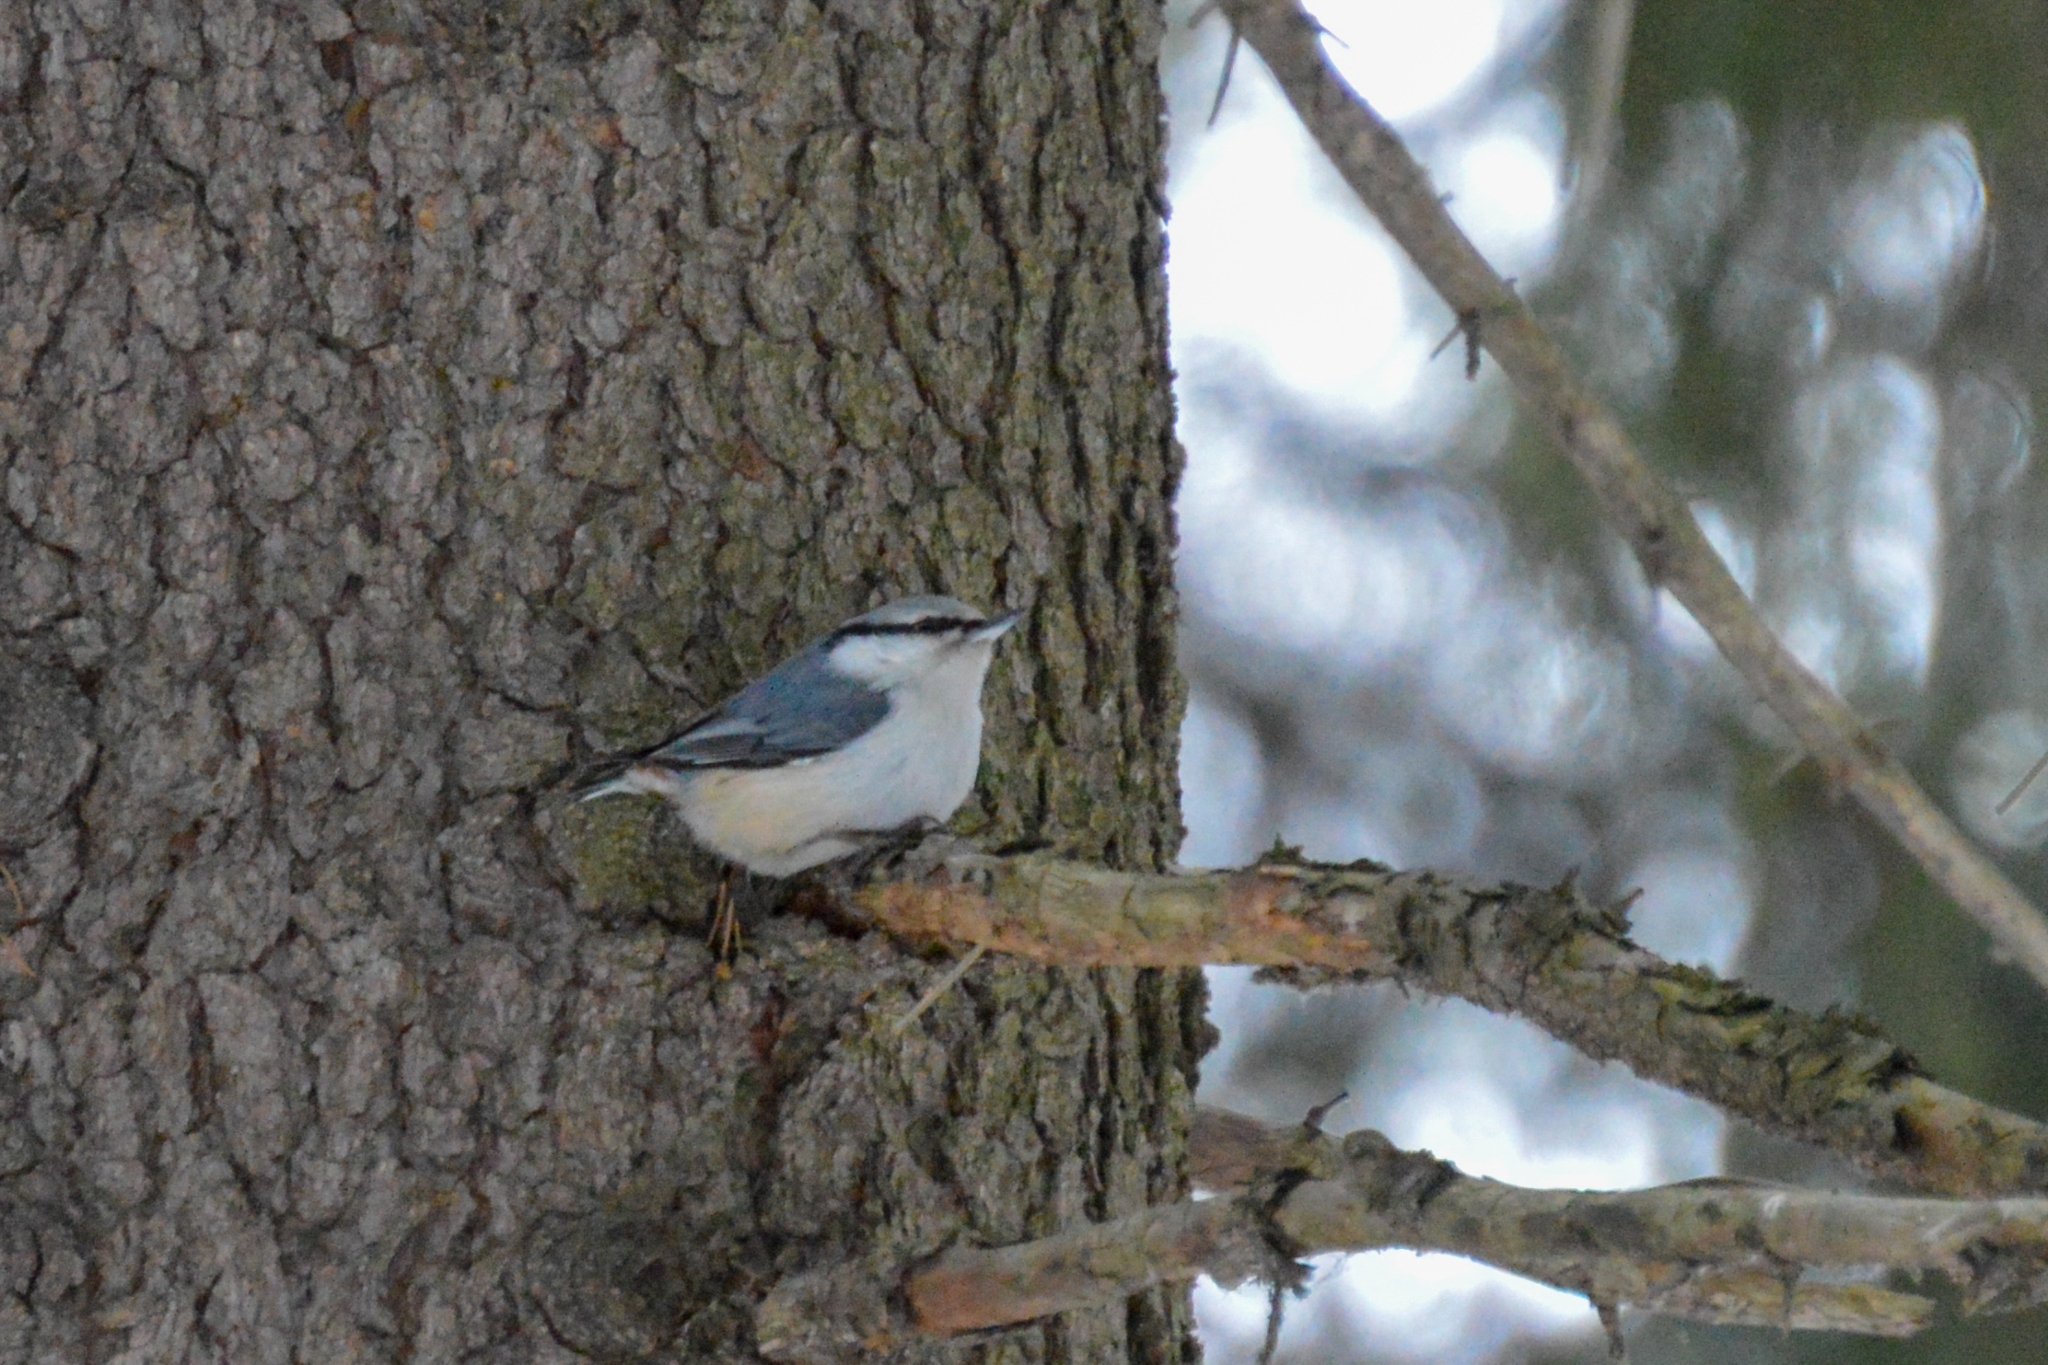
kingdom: Animalia
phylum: Chordata
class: Aves
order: Passeriformes
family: Sittidae
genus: Sitta
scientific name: Sitta europaea
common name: Eurasian nuthatch
